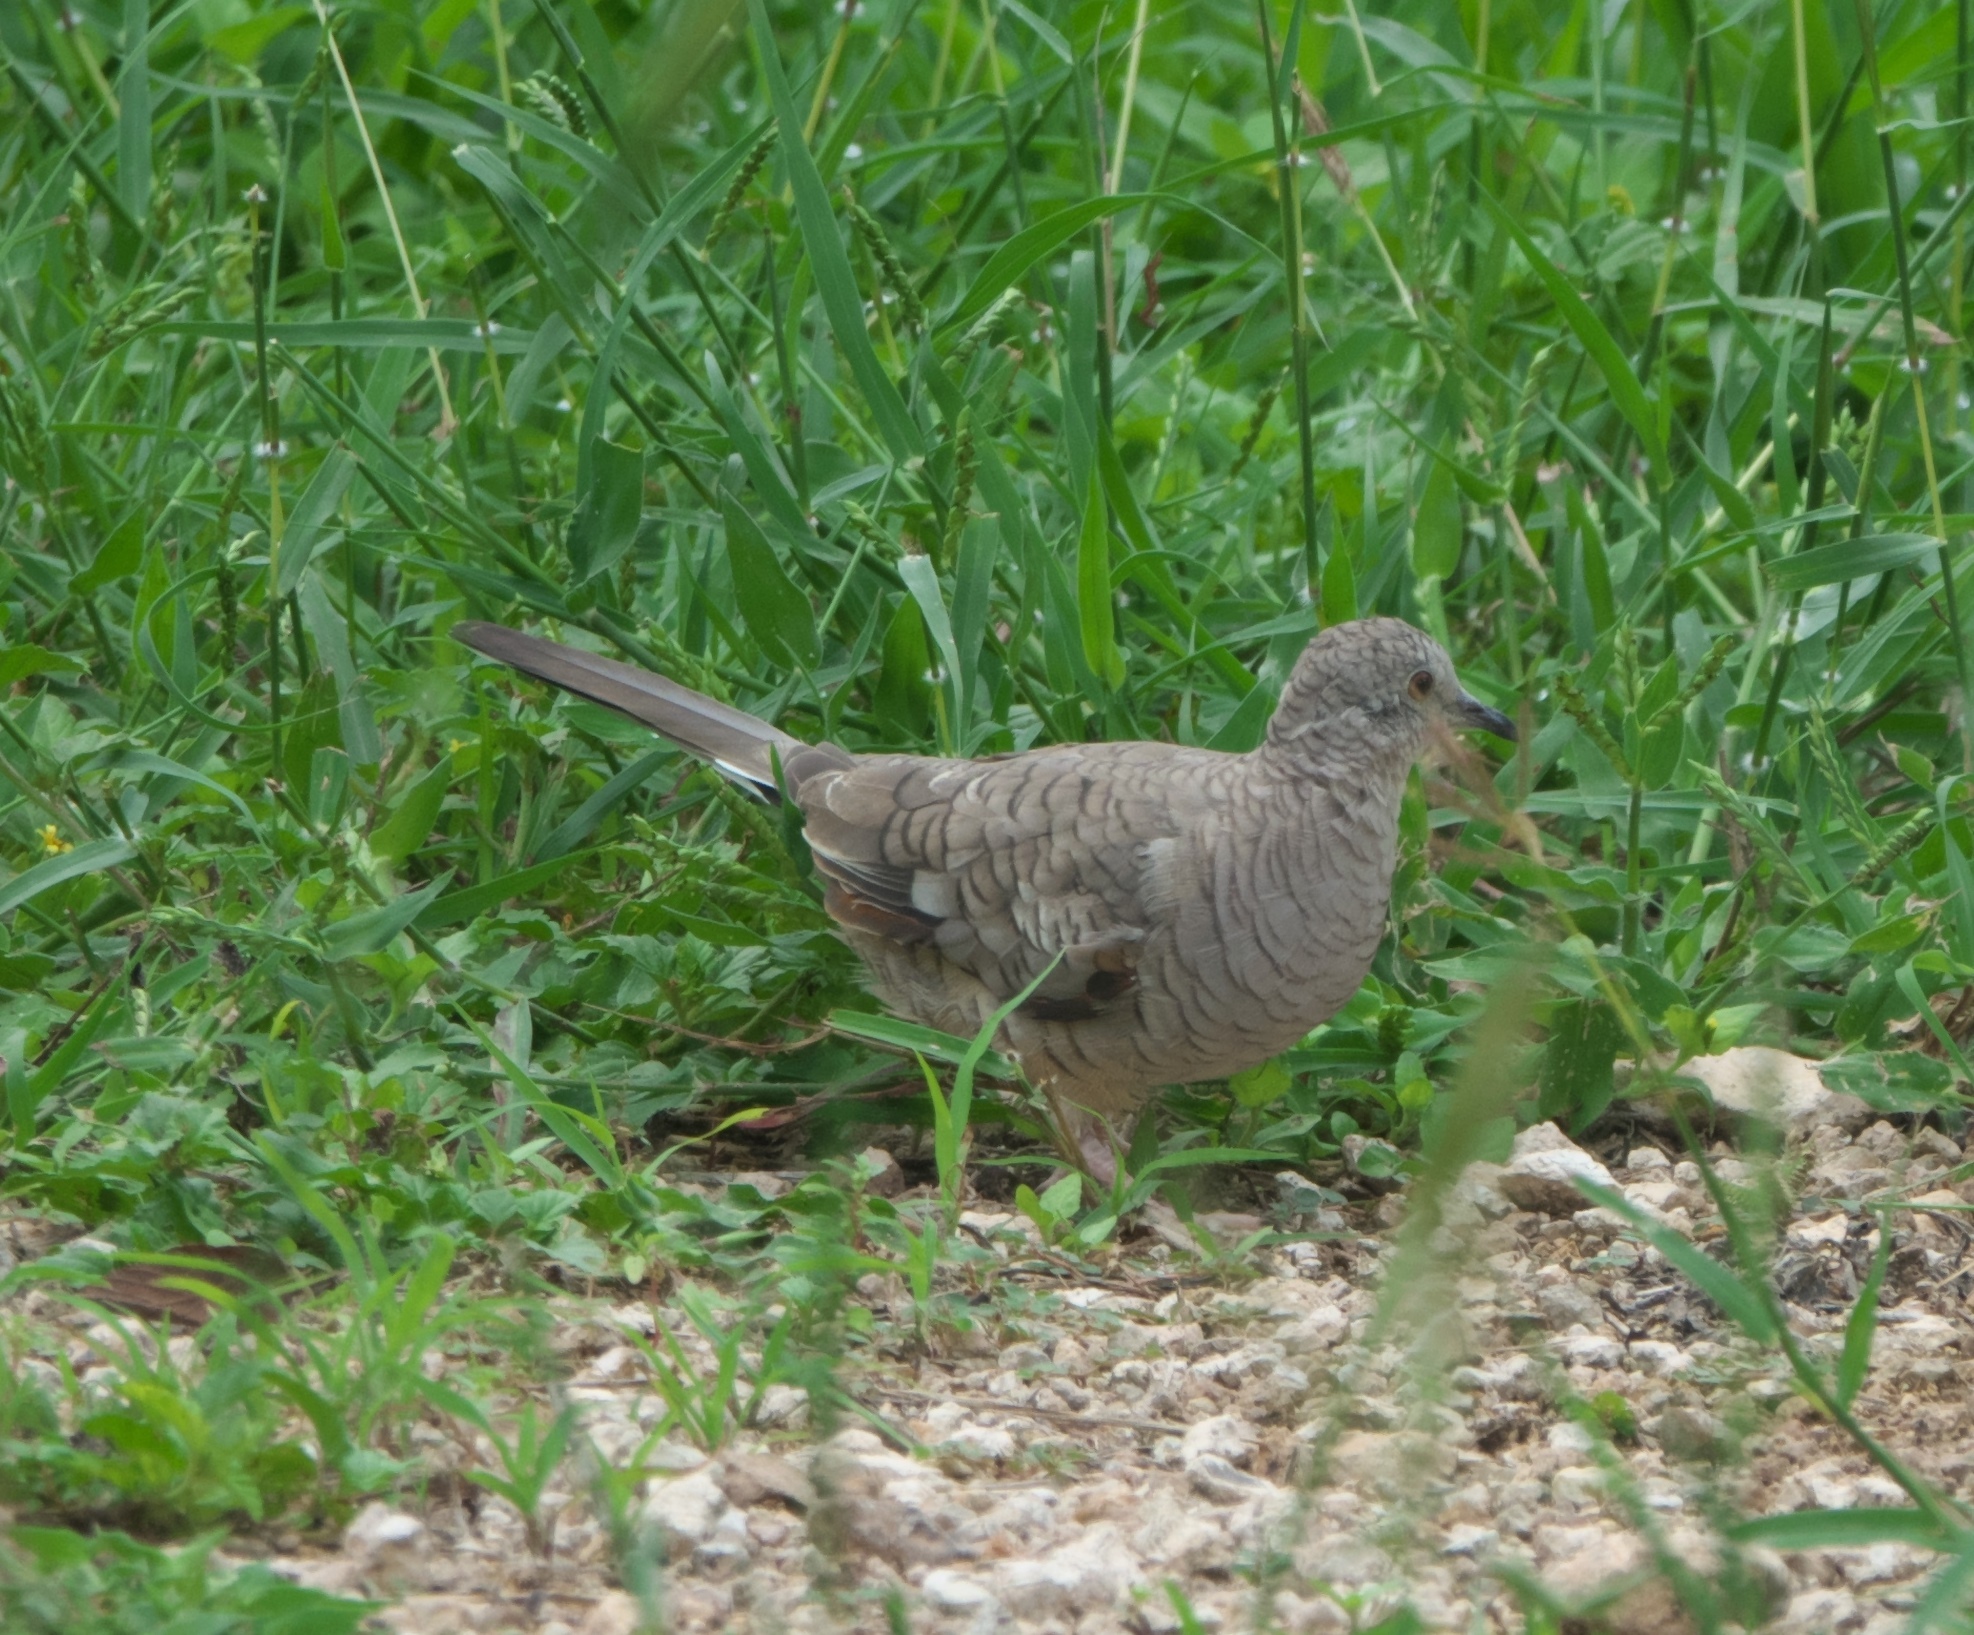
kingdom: Animalia
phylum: Chordata
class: Aves
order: Columbiformes
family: Columbidae
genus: Columbina
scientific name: Columbina inca
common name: Inca dove
